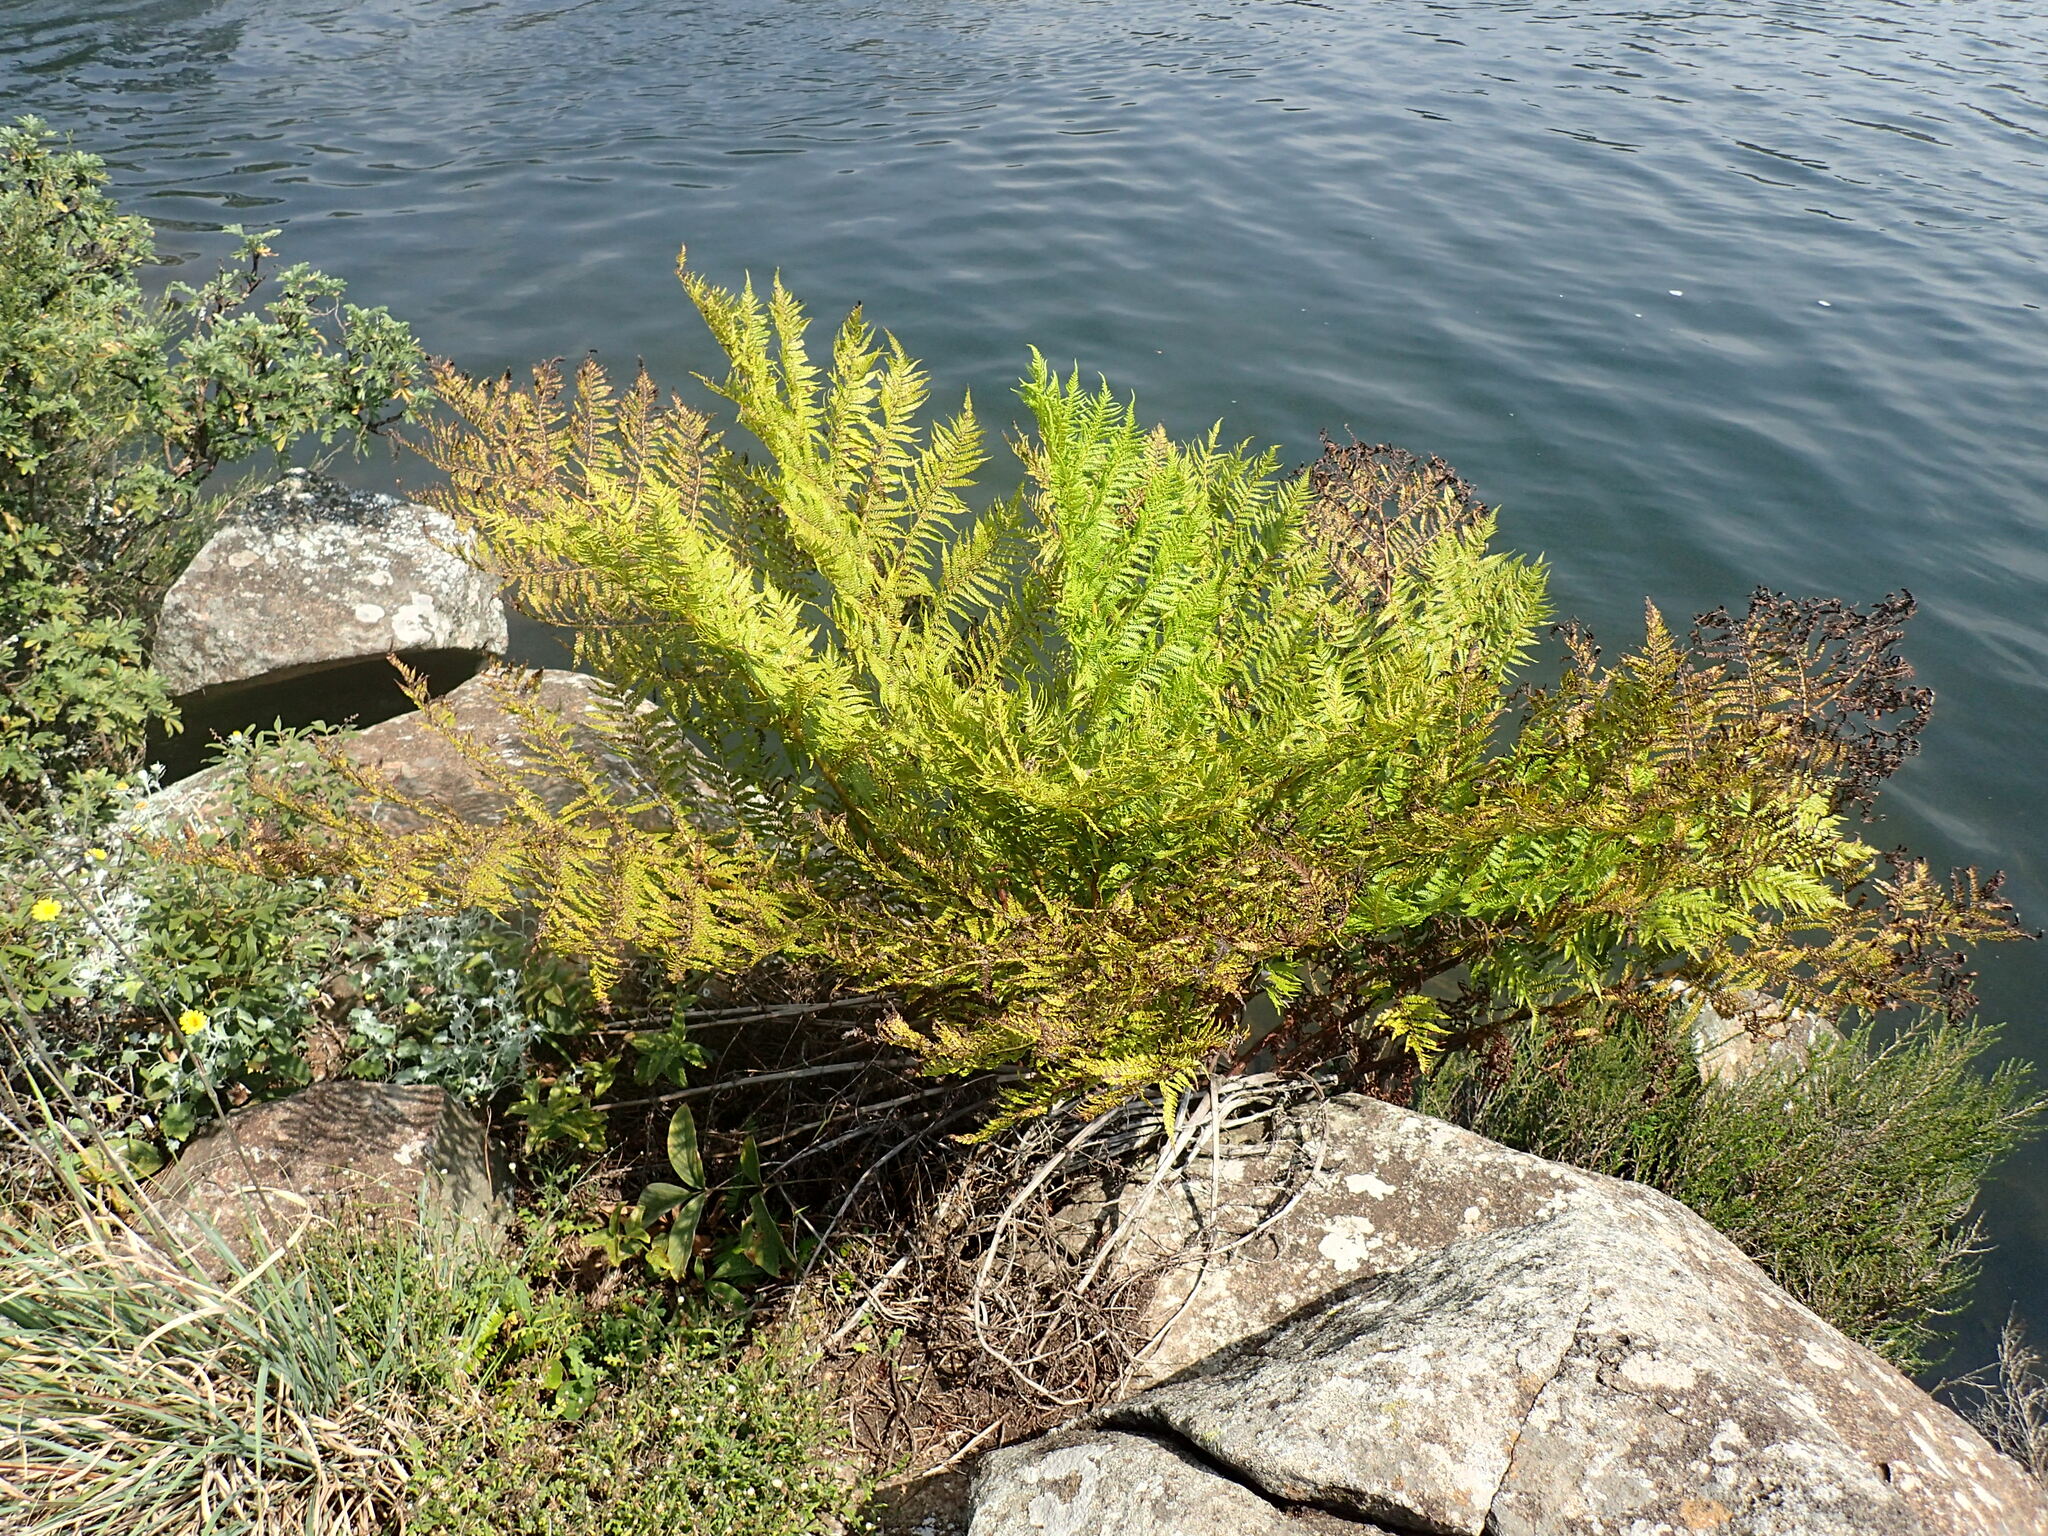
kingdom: Plantae
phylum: Tracheophyta
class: Polypodiopsida
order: Cyatheales
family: Cyatheaceae
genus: Alsophila
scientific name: Alsophila dregei
